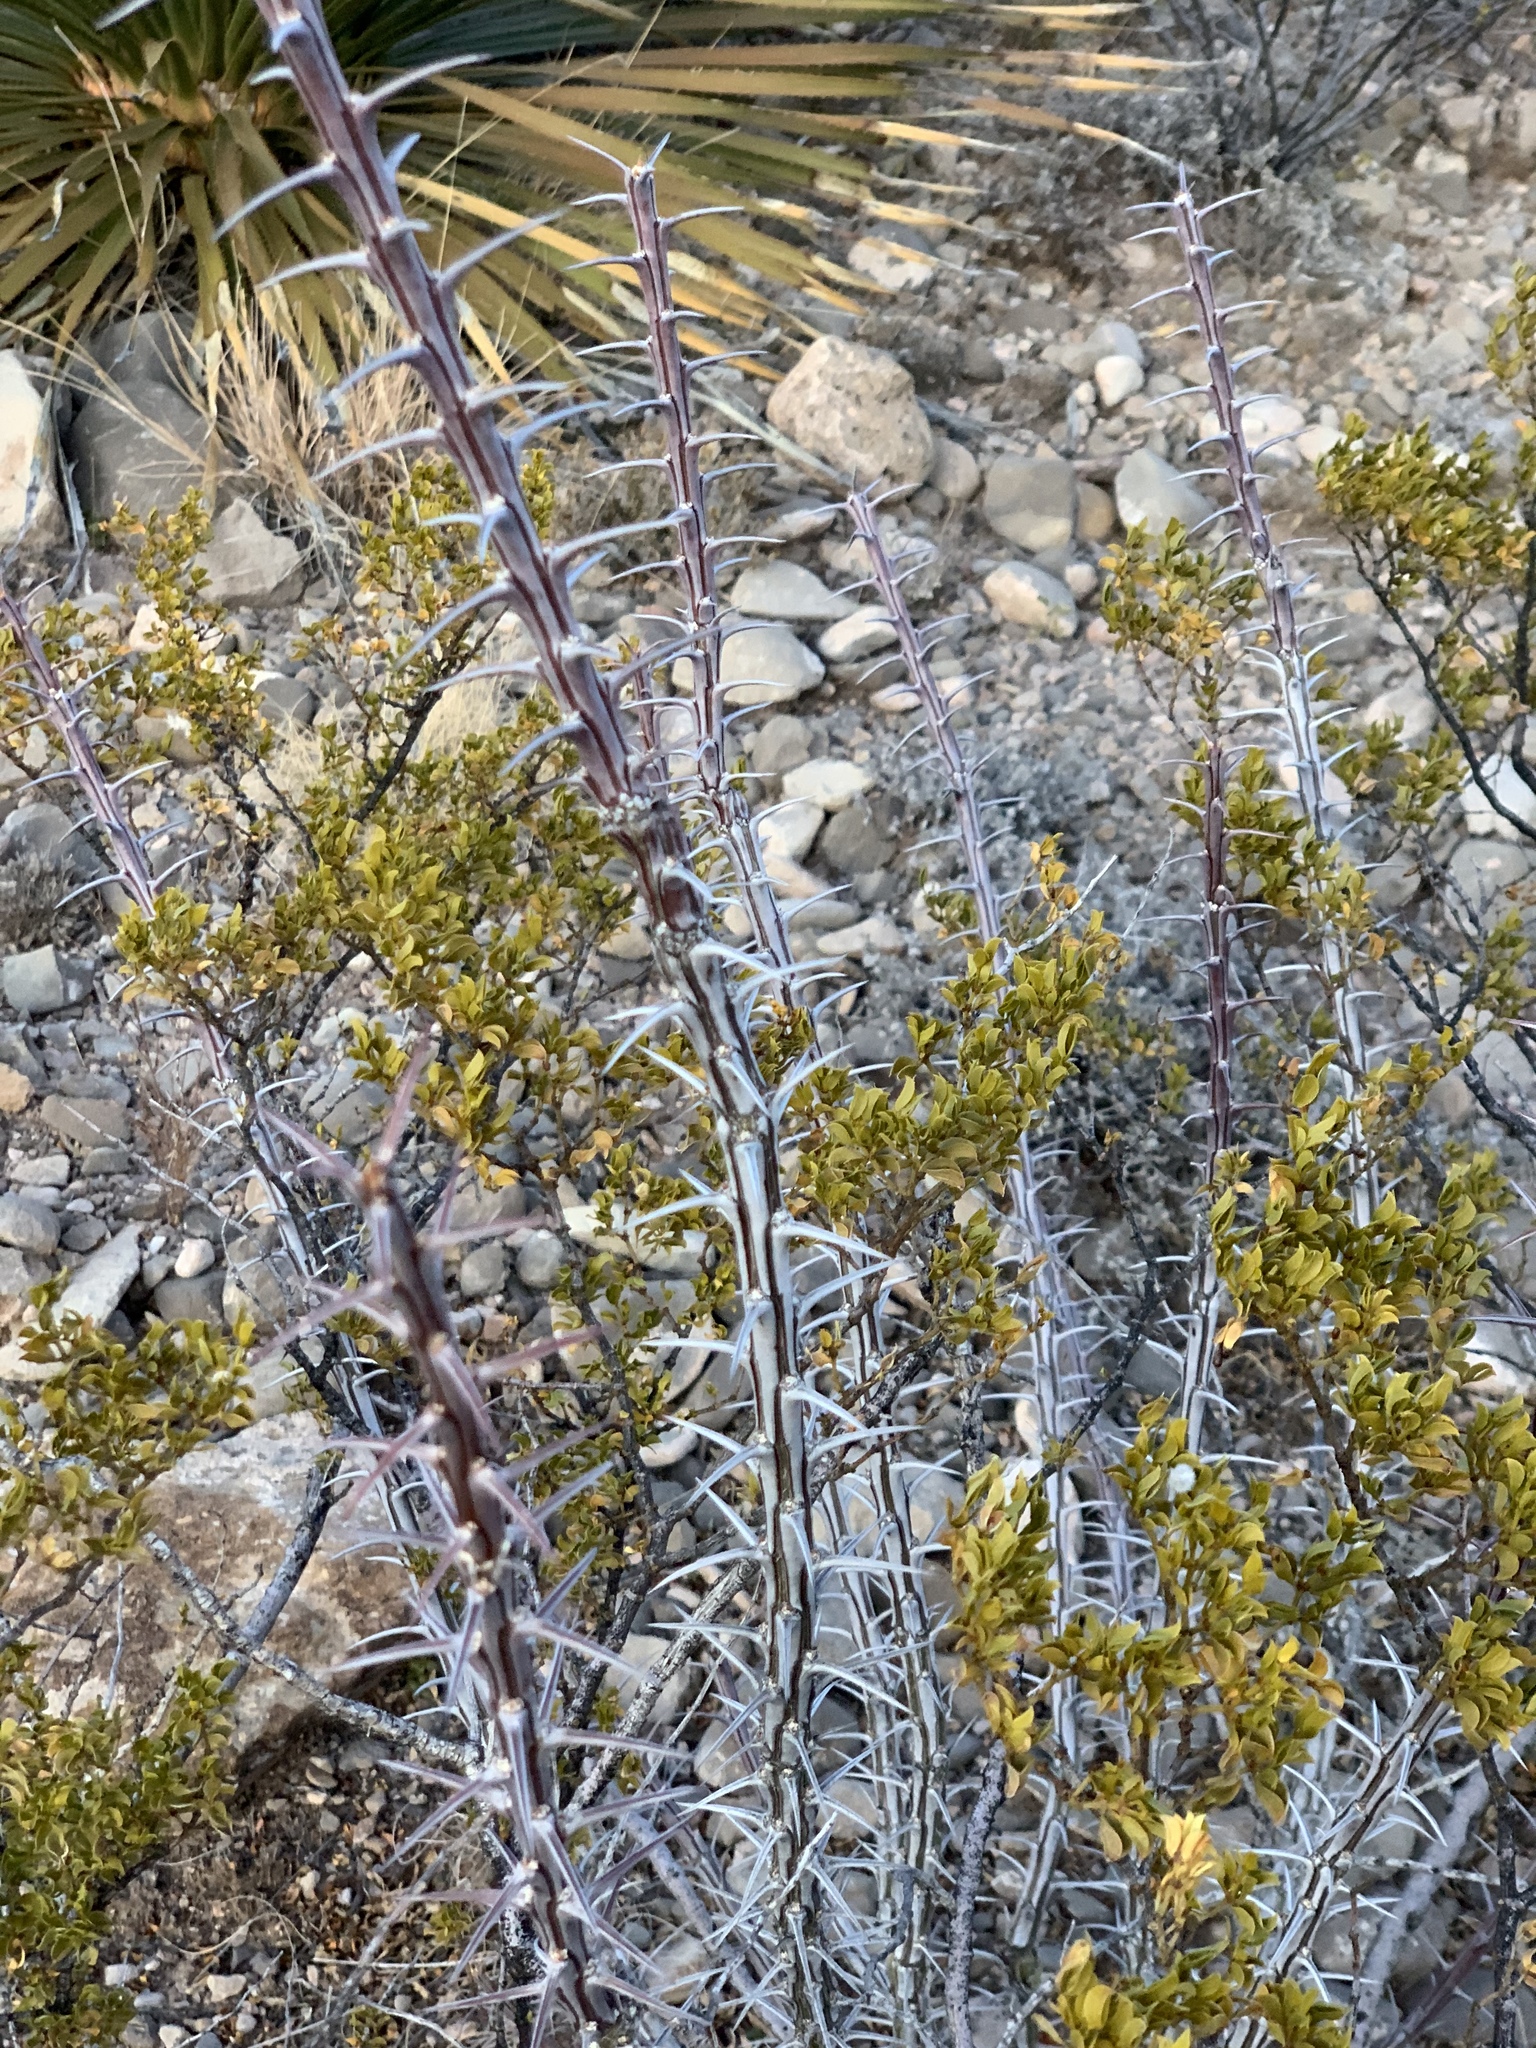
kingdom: Plantae
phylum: Tracheophyta
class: Magnoliopsida
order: Ericales
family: Fouquieriaceae
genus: Fouquieria
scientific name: Fouquieria splendens
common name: Vine-cactus
